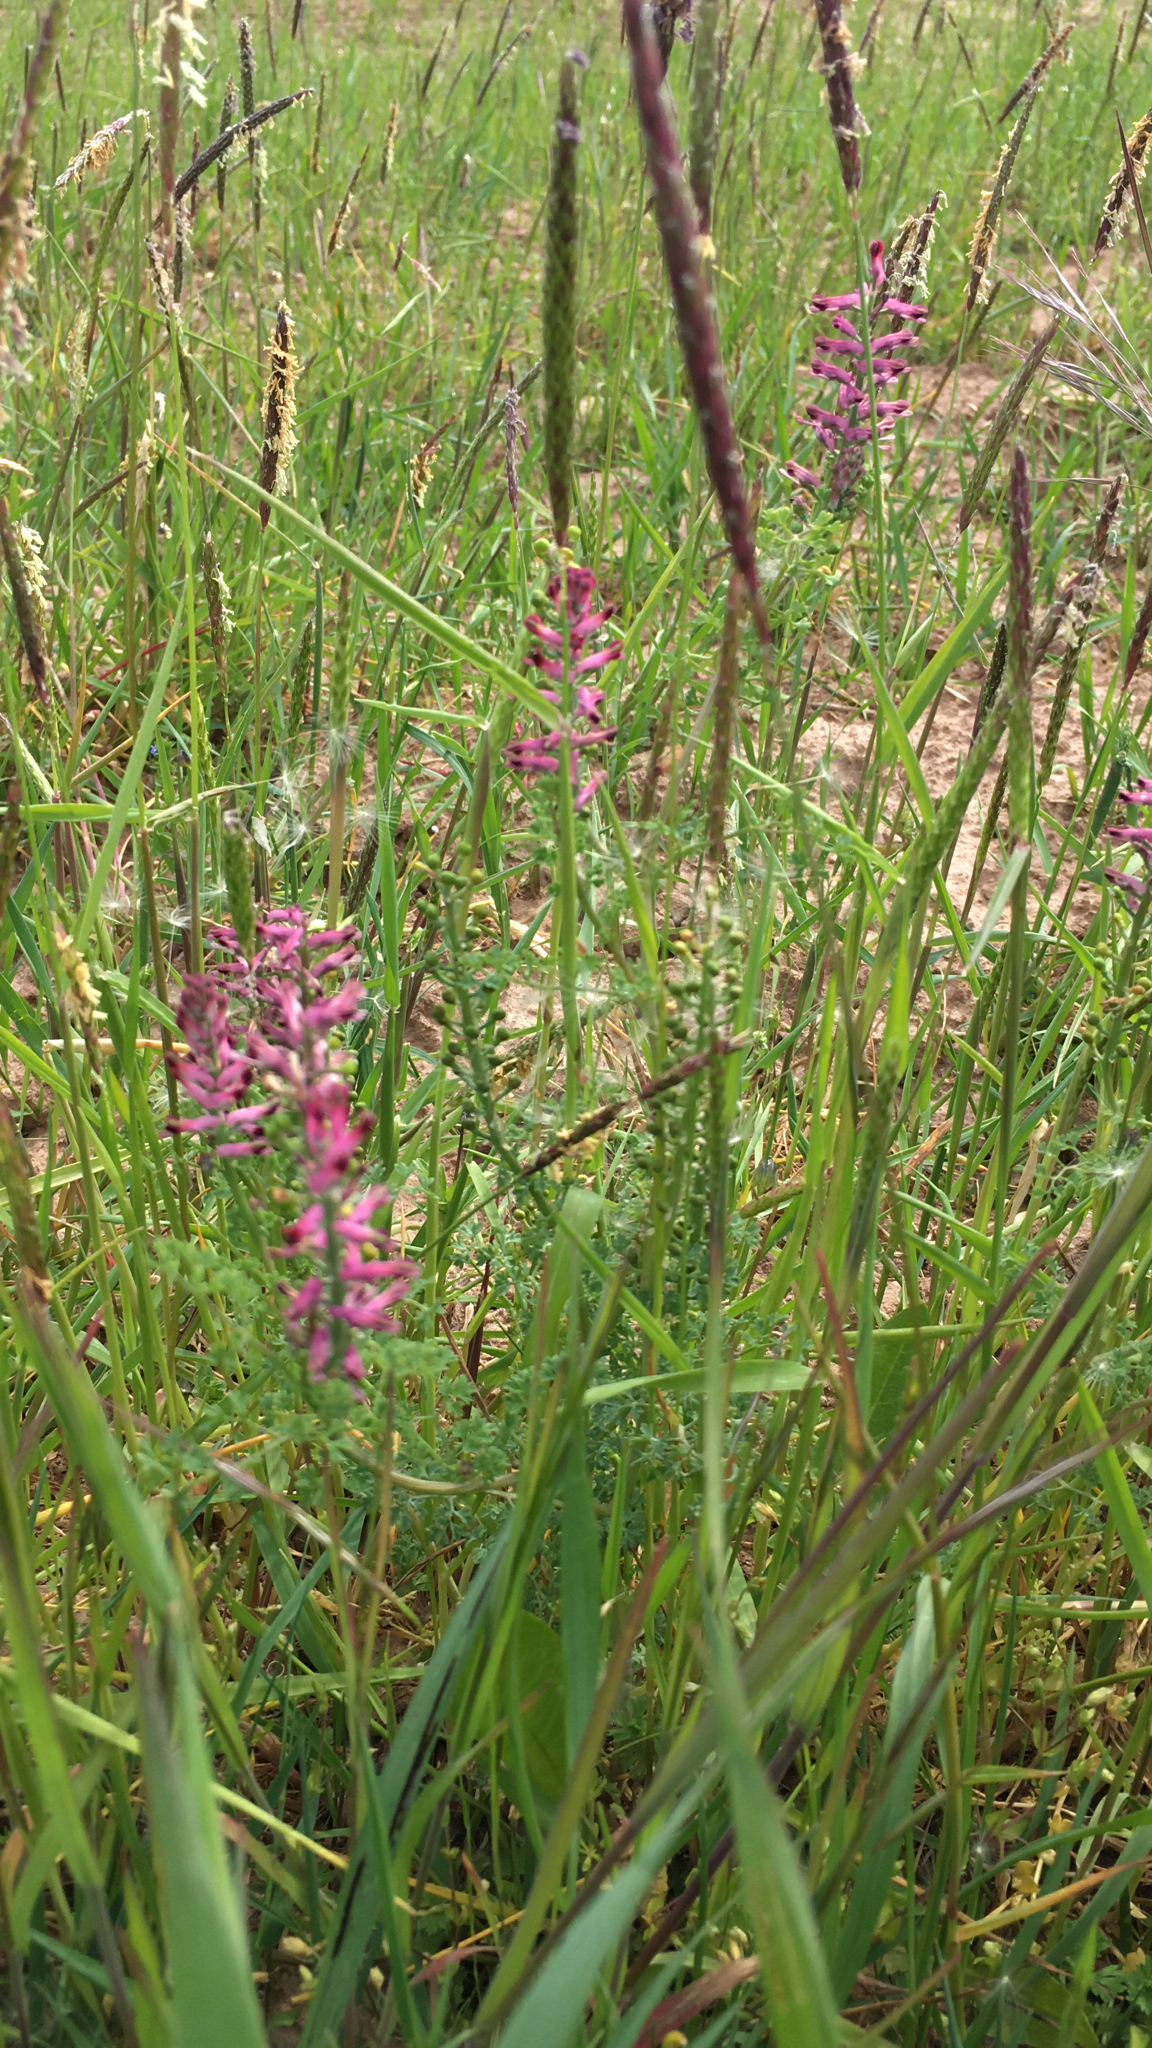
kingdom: Plantae
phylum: Tracheophyta
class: Magnoliopsida
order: Ranunculales
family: Papaveraceae
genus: Fumaria
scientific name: Fumaria officinalis
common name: Common fumitory
